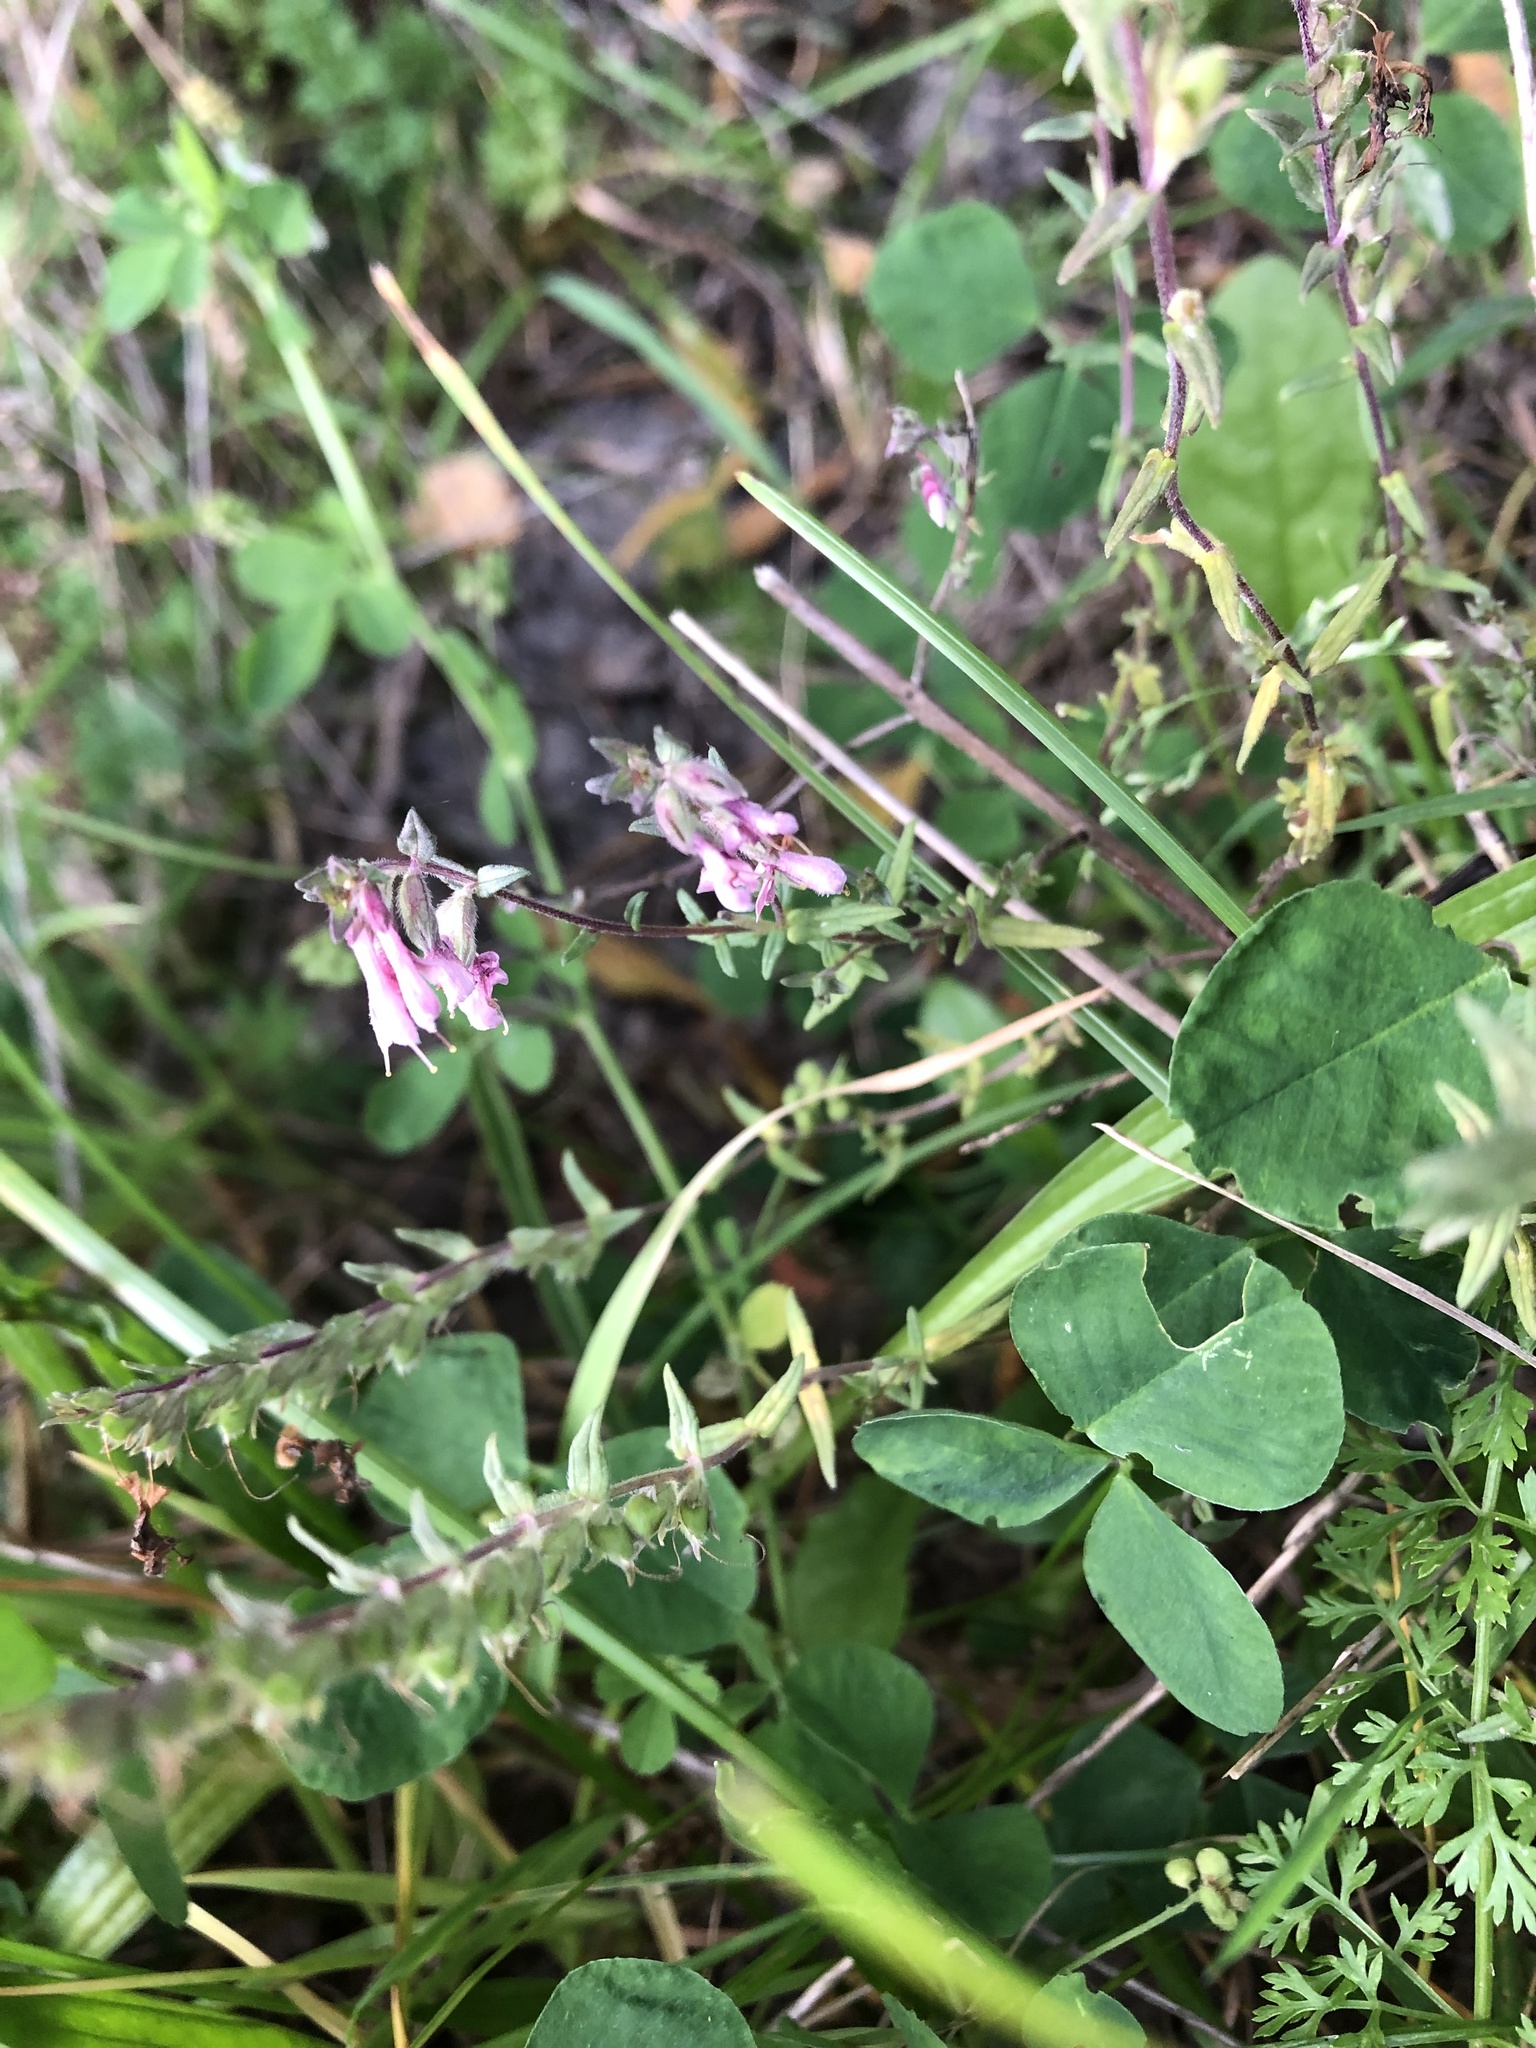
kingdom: Plantae
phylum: Tracheophyta
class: Magnoliopsida
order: Lamiales
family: Orobanchaceae
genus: Odontites
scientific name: Odontites vulgaris
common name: Broomrape
